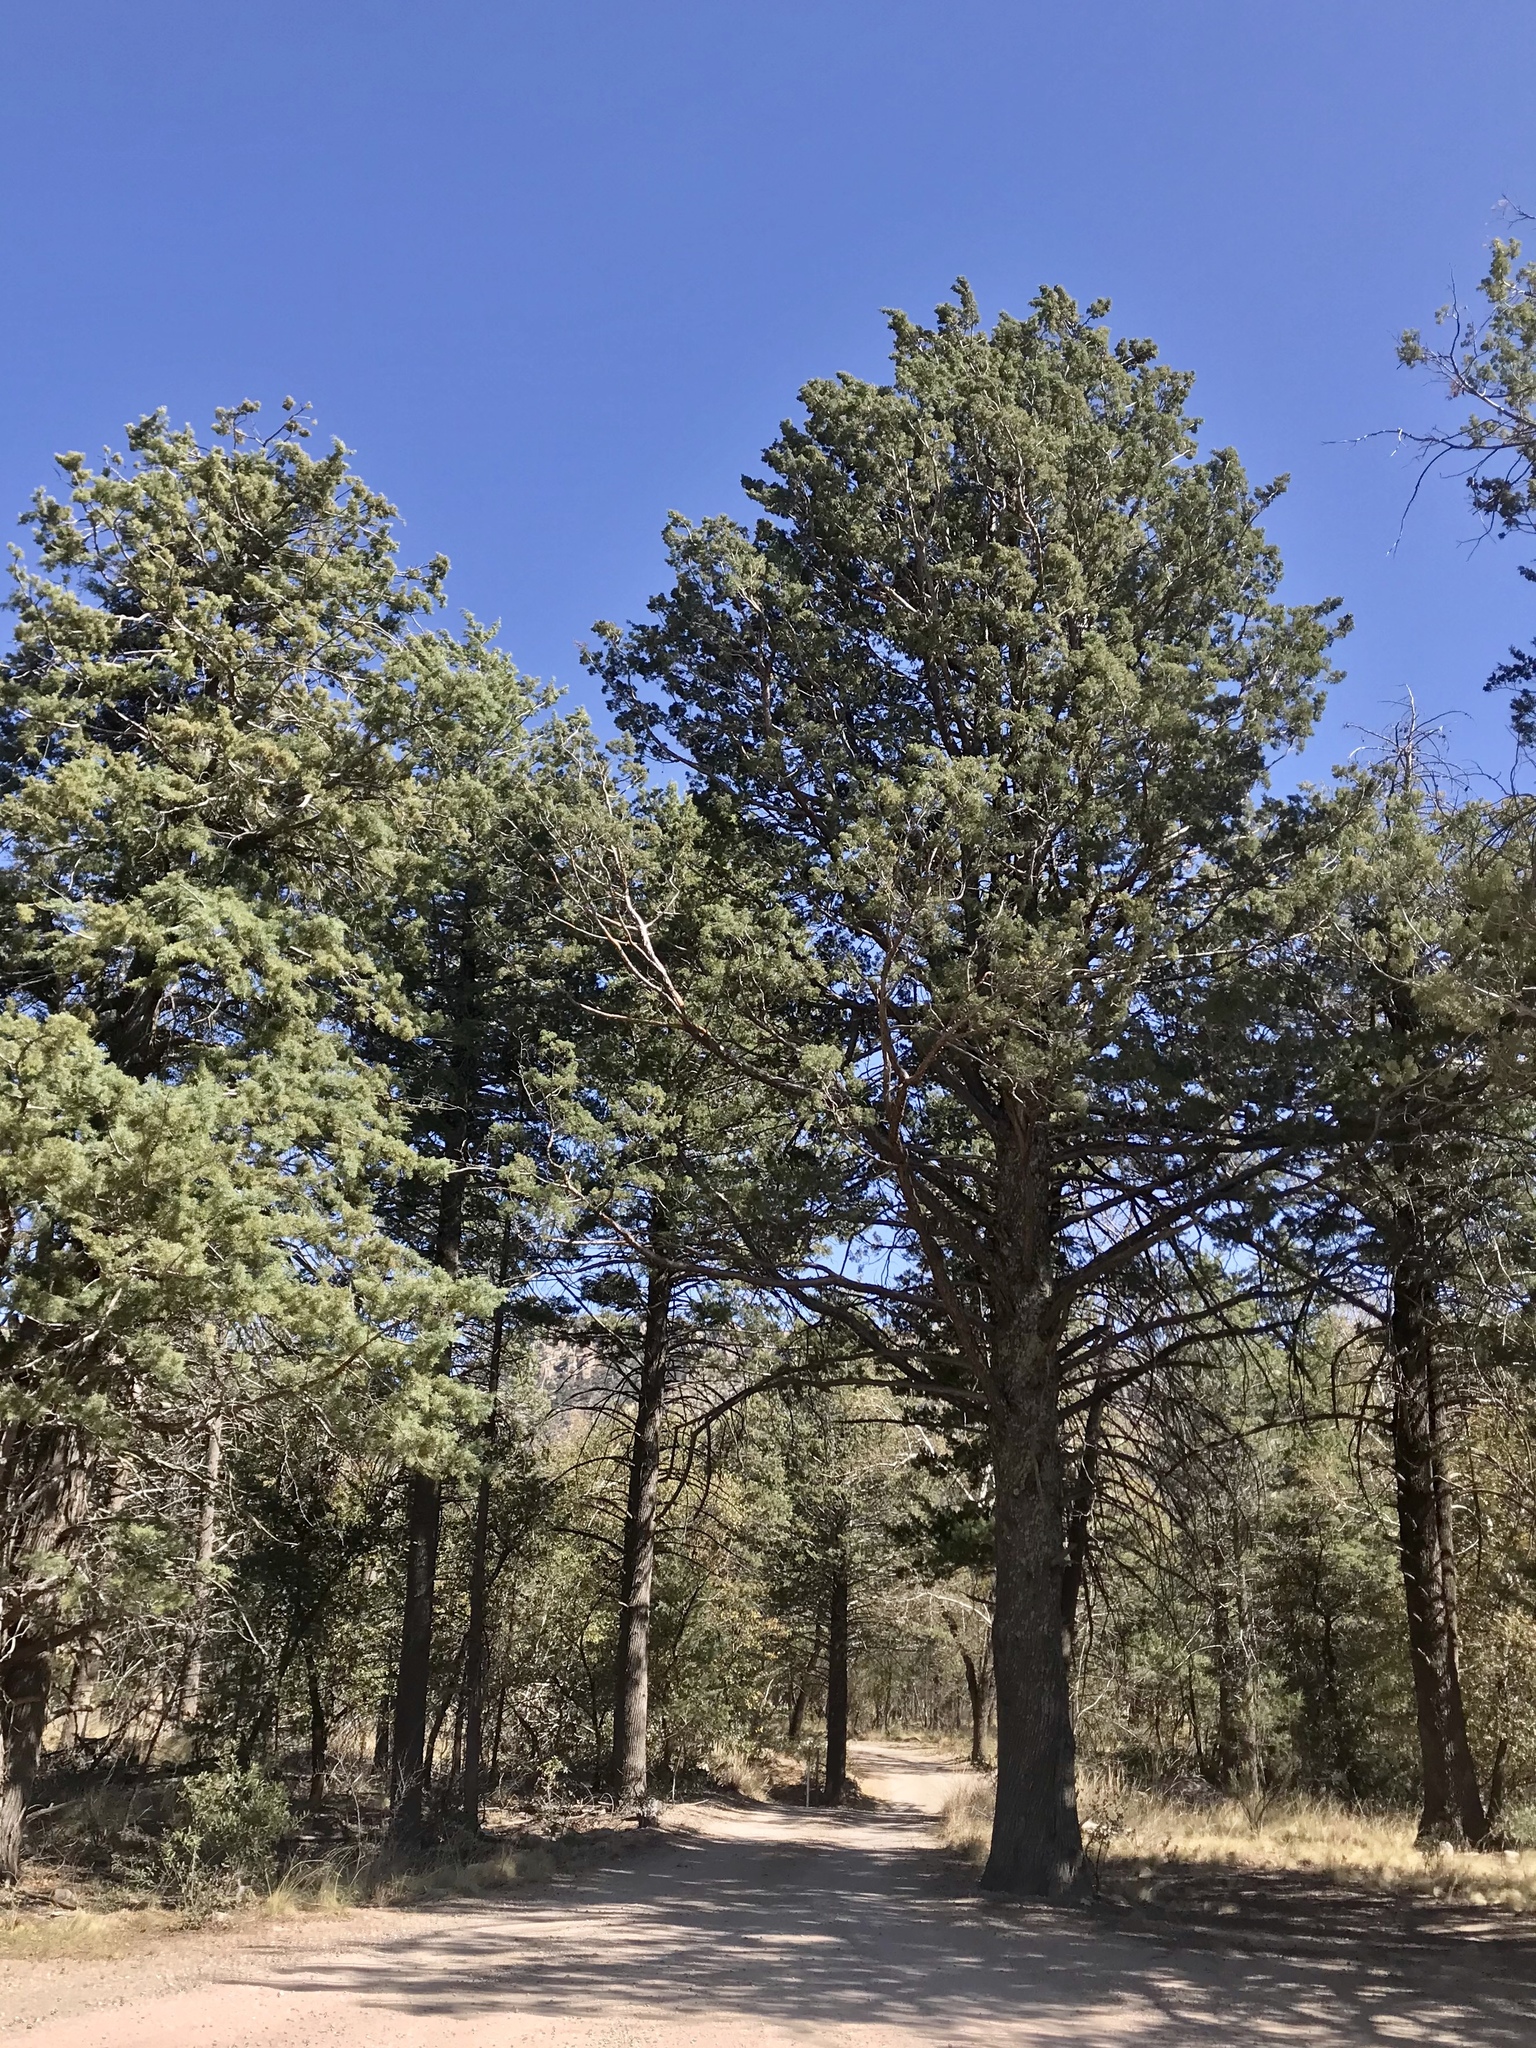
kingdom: Plantae
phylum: Tracheophyta
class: Pinopsida
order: Pinales
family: Cupressaceae
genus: Cupressus
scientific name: Cupressus arizonica
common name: Arizona cypress
